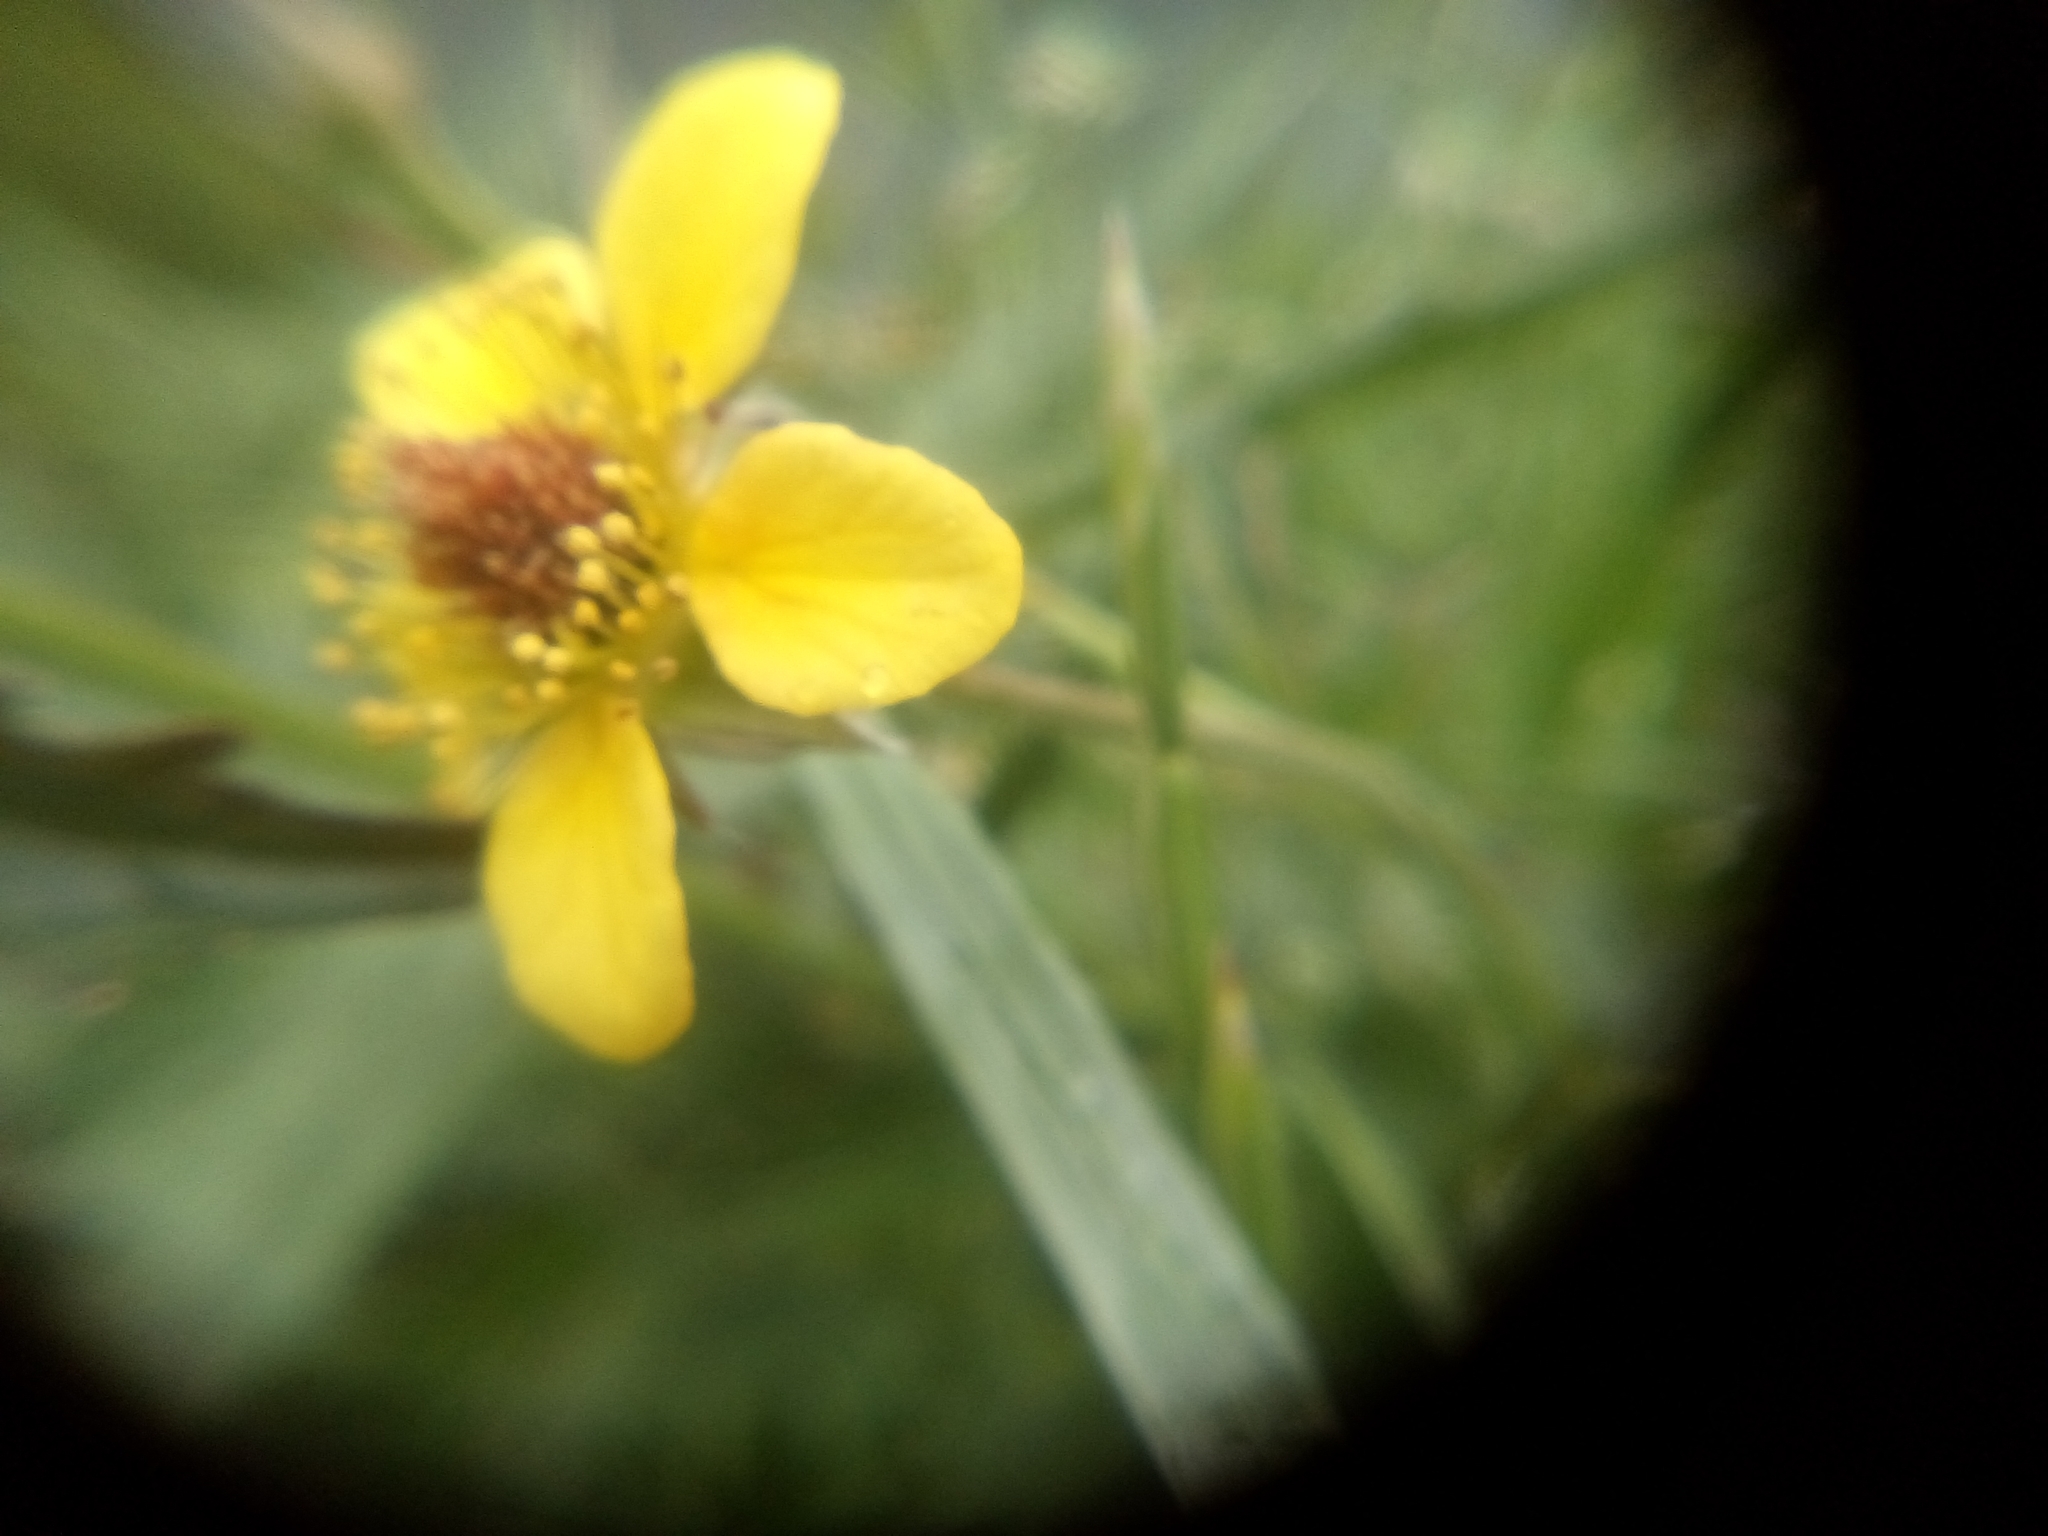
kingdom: Plantae
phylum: Tracheophyta
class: Magnoliopsida
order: Rosales
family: Rosaceae
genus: Geum
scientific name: Geum urbanum
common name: Wood avens
